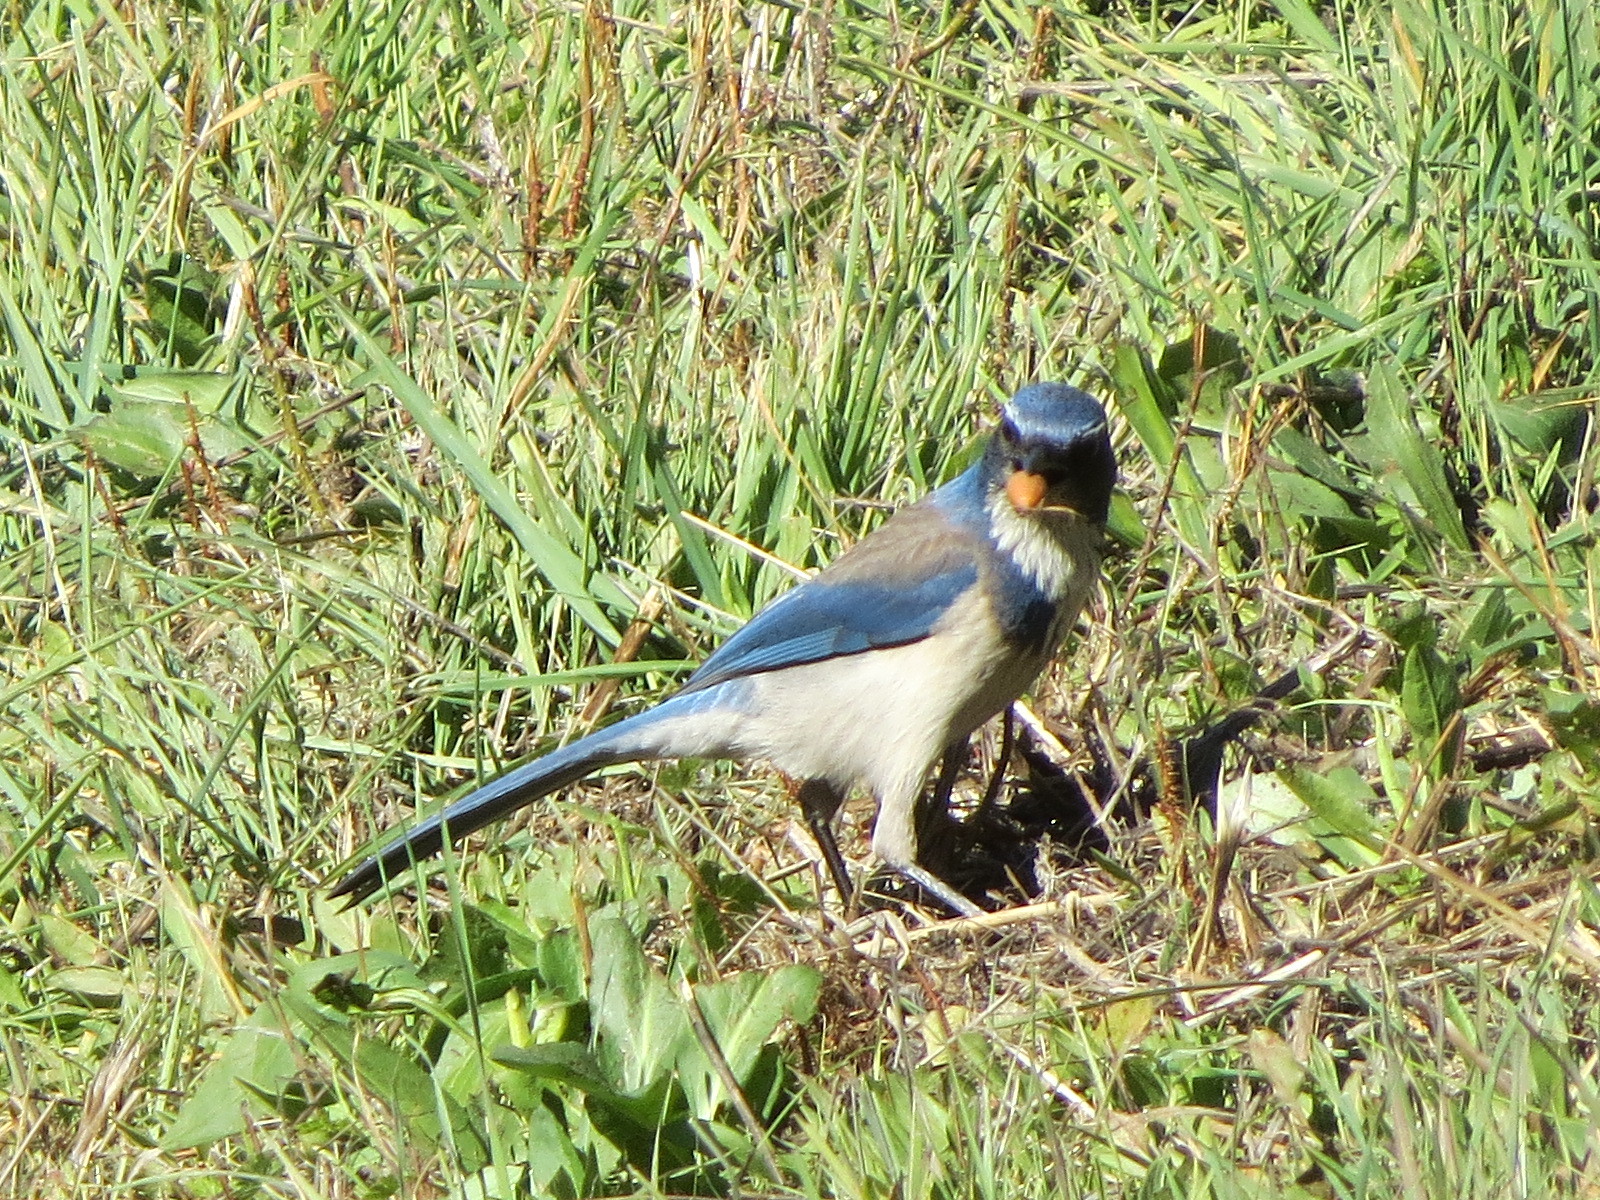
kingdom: Animalia
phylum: Chordata
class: Aves
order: Passeriformes
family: Corvidae
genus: Aphelocoma
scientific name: Aphelocoma californica
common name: California scrub-jay
